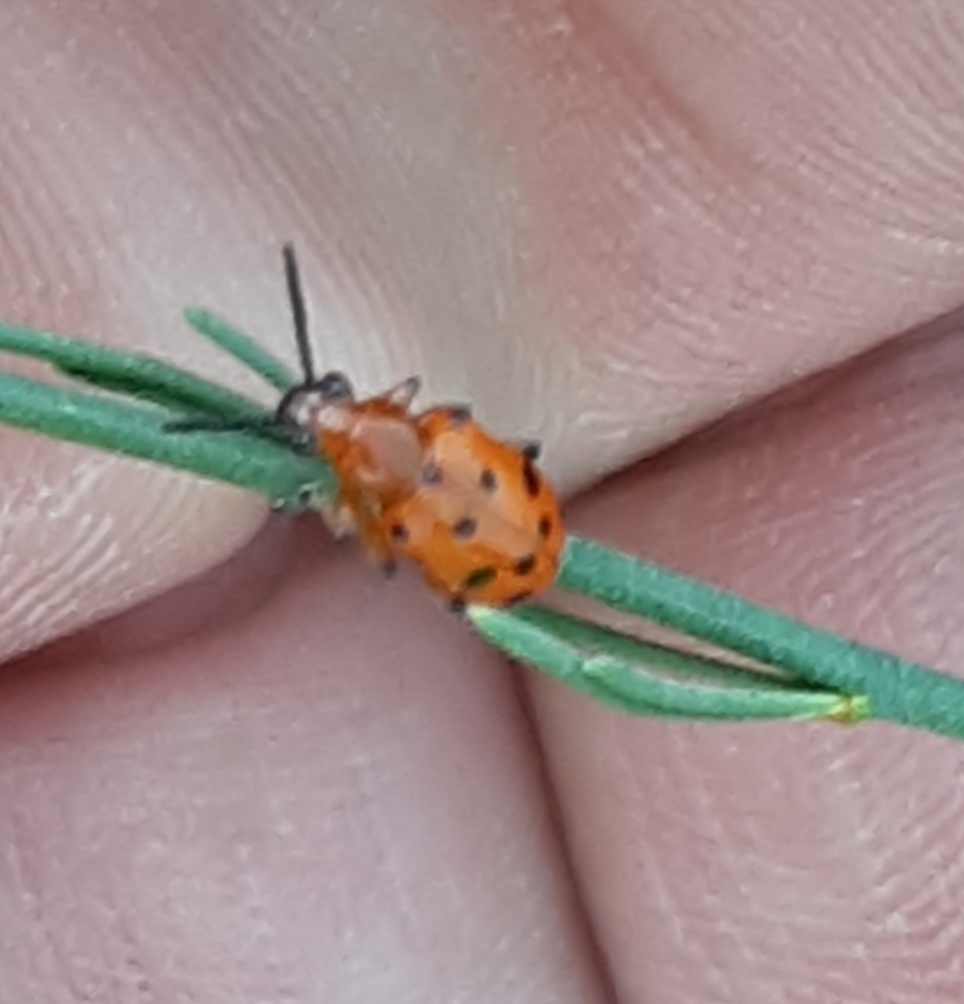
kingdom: Animalia
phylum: Arthropoda
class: Insecta
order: Coleoptera
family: Chrysomelidae
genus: Crioceris
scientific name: Crioceris duodecimpunctata
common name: Twelve-spotted asparagus beetle
